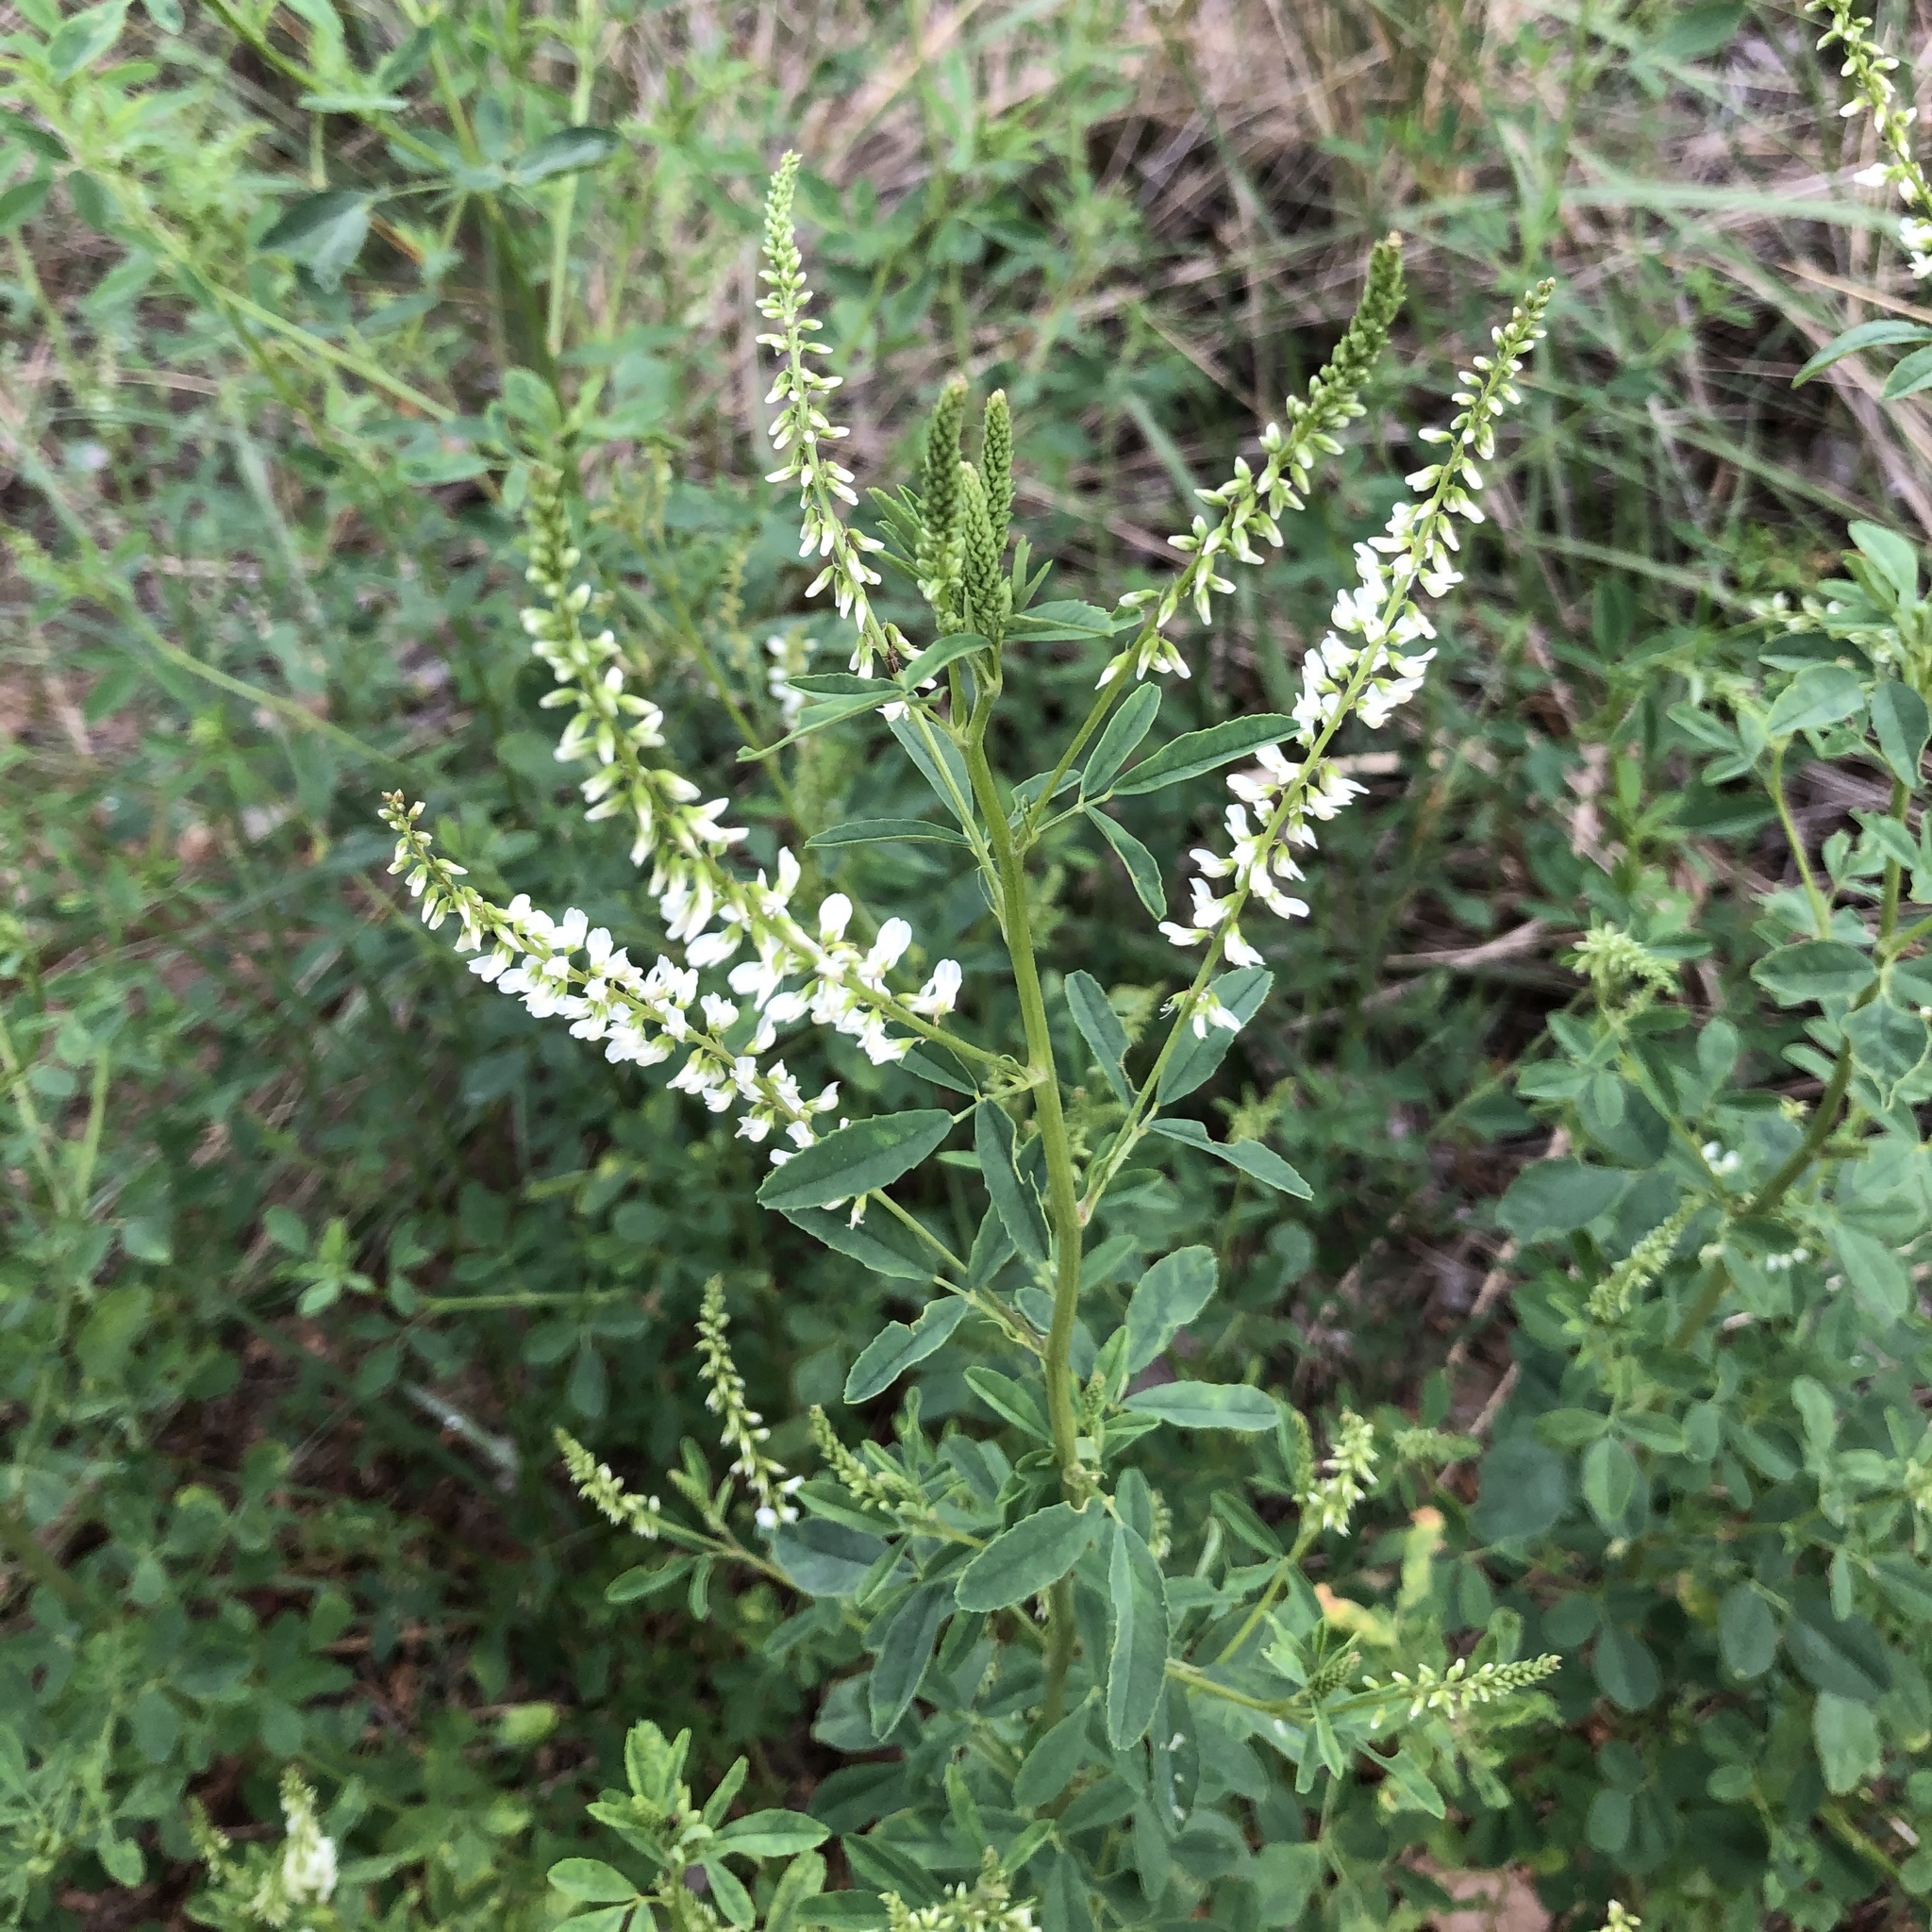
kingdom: Plantae
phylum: Tracheophyta
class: Magnoliopsida
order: Fabales
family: Fabaceae
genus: Melilotus
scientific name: Melilotus albus
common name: White melilot
